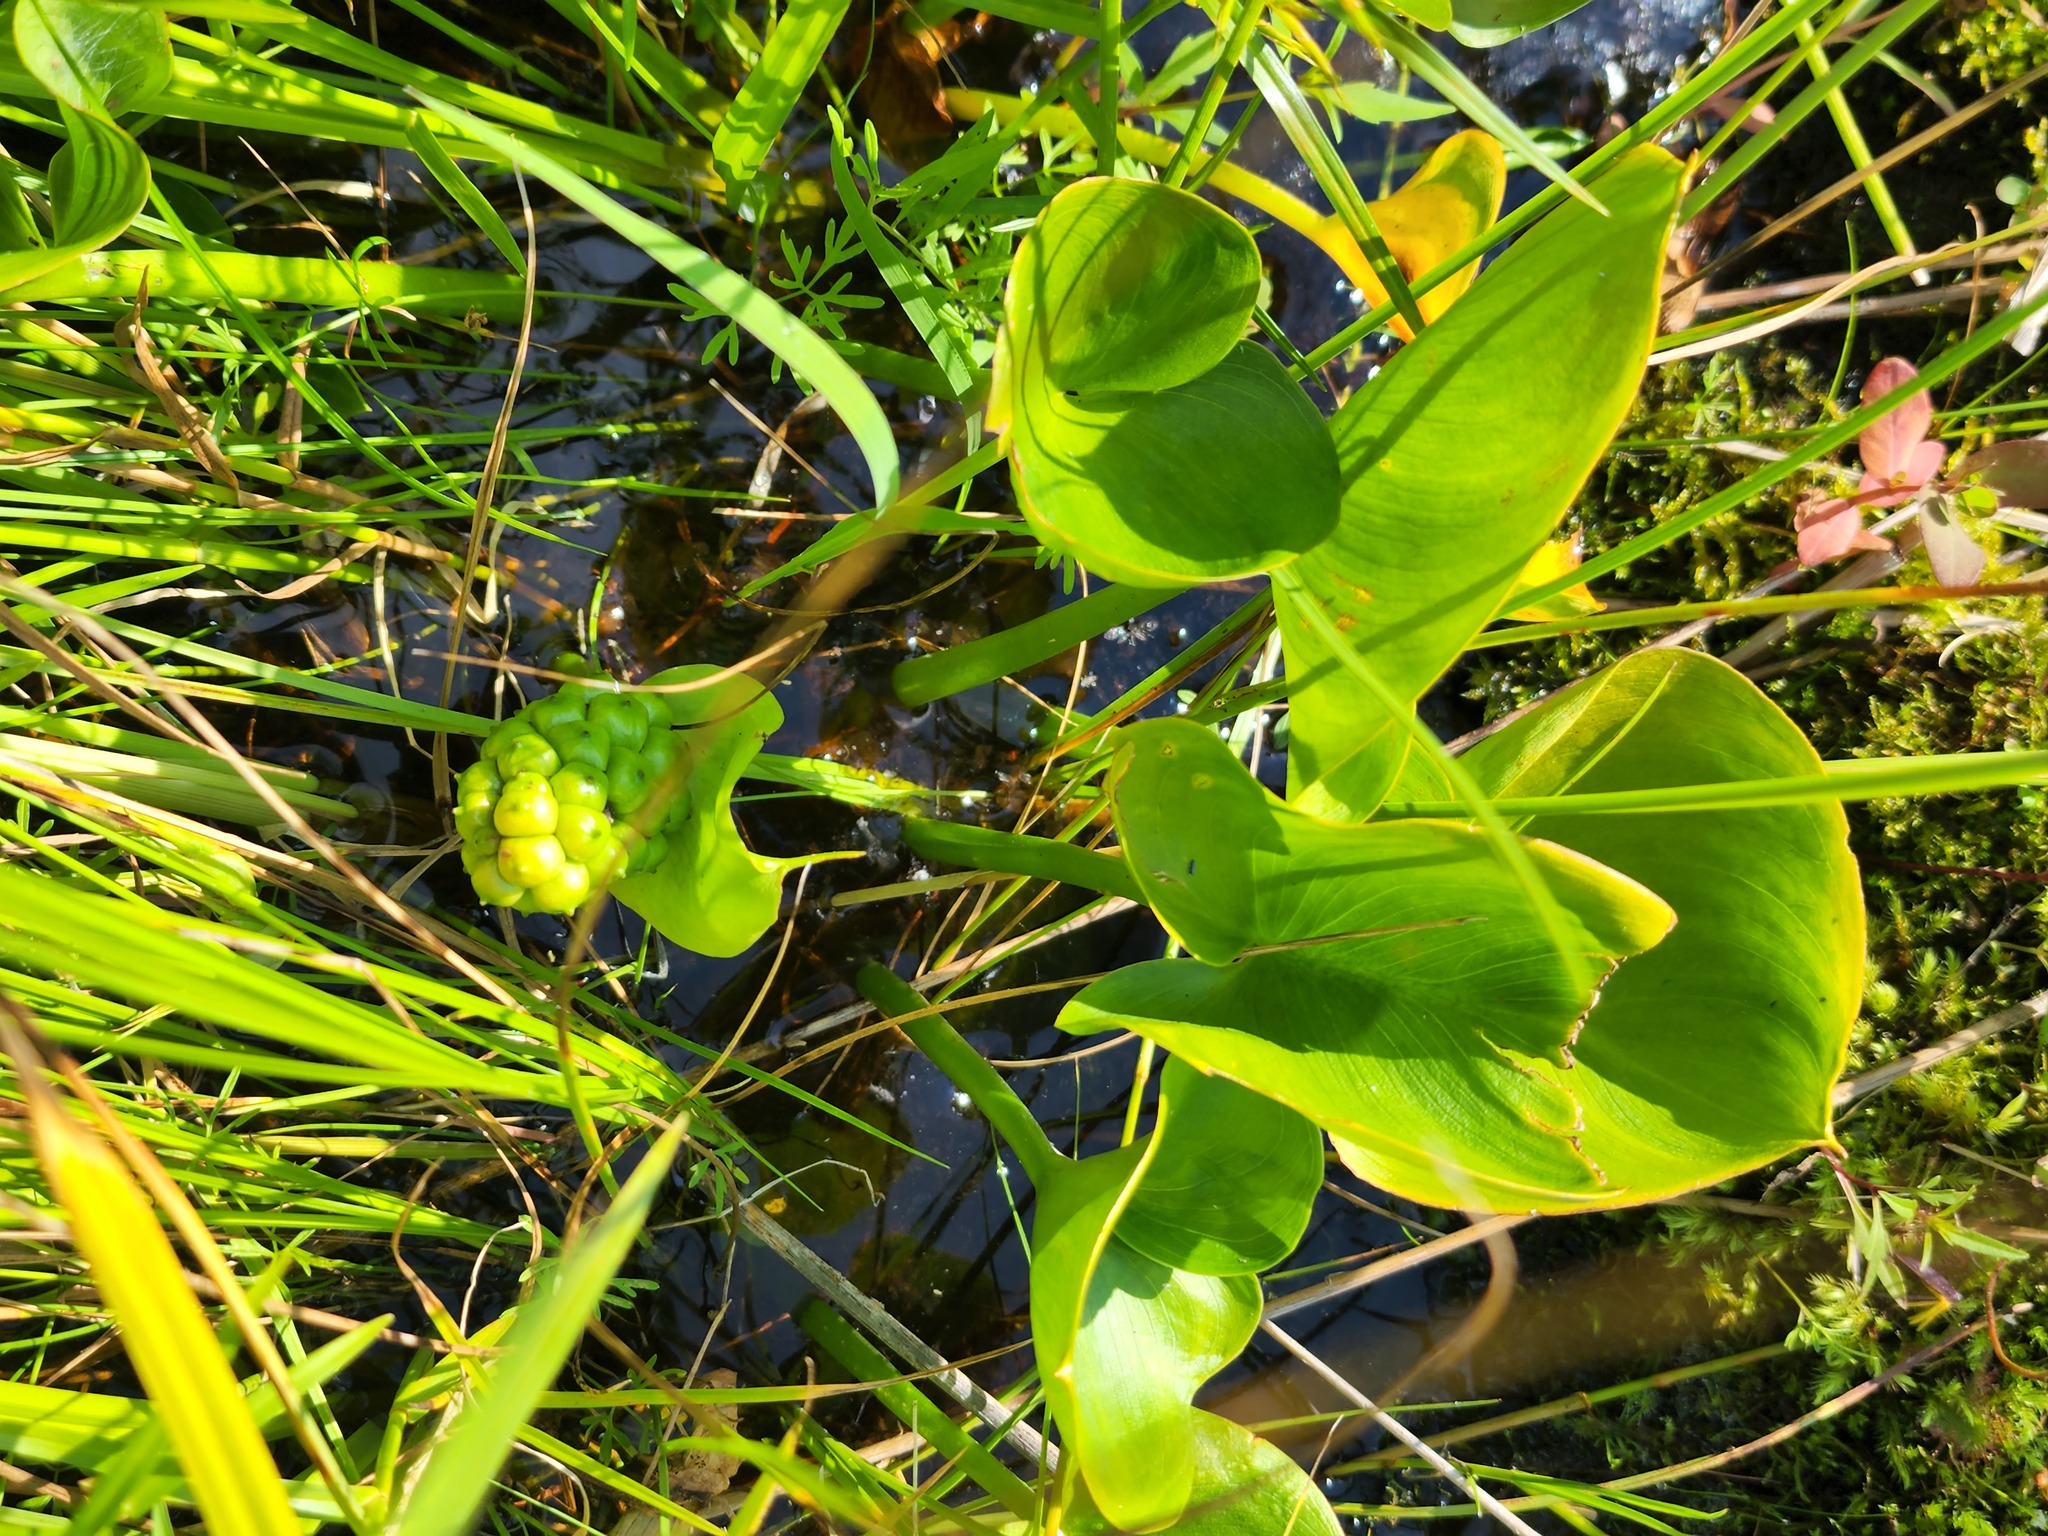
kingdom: Plantae
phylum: Tracheophyta
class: Liliopsida
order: Alismatales
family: Araceae
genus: Calla
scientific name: Calla palustris
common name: Bog arum
